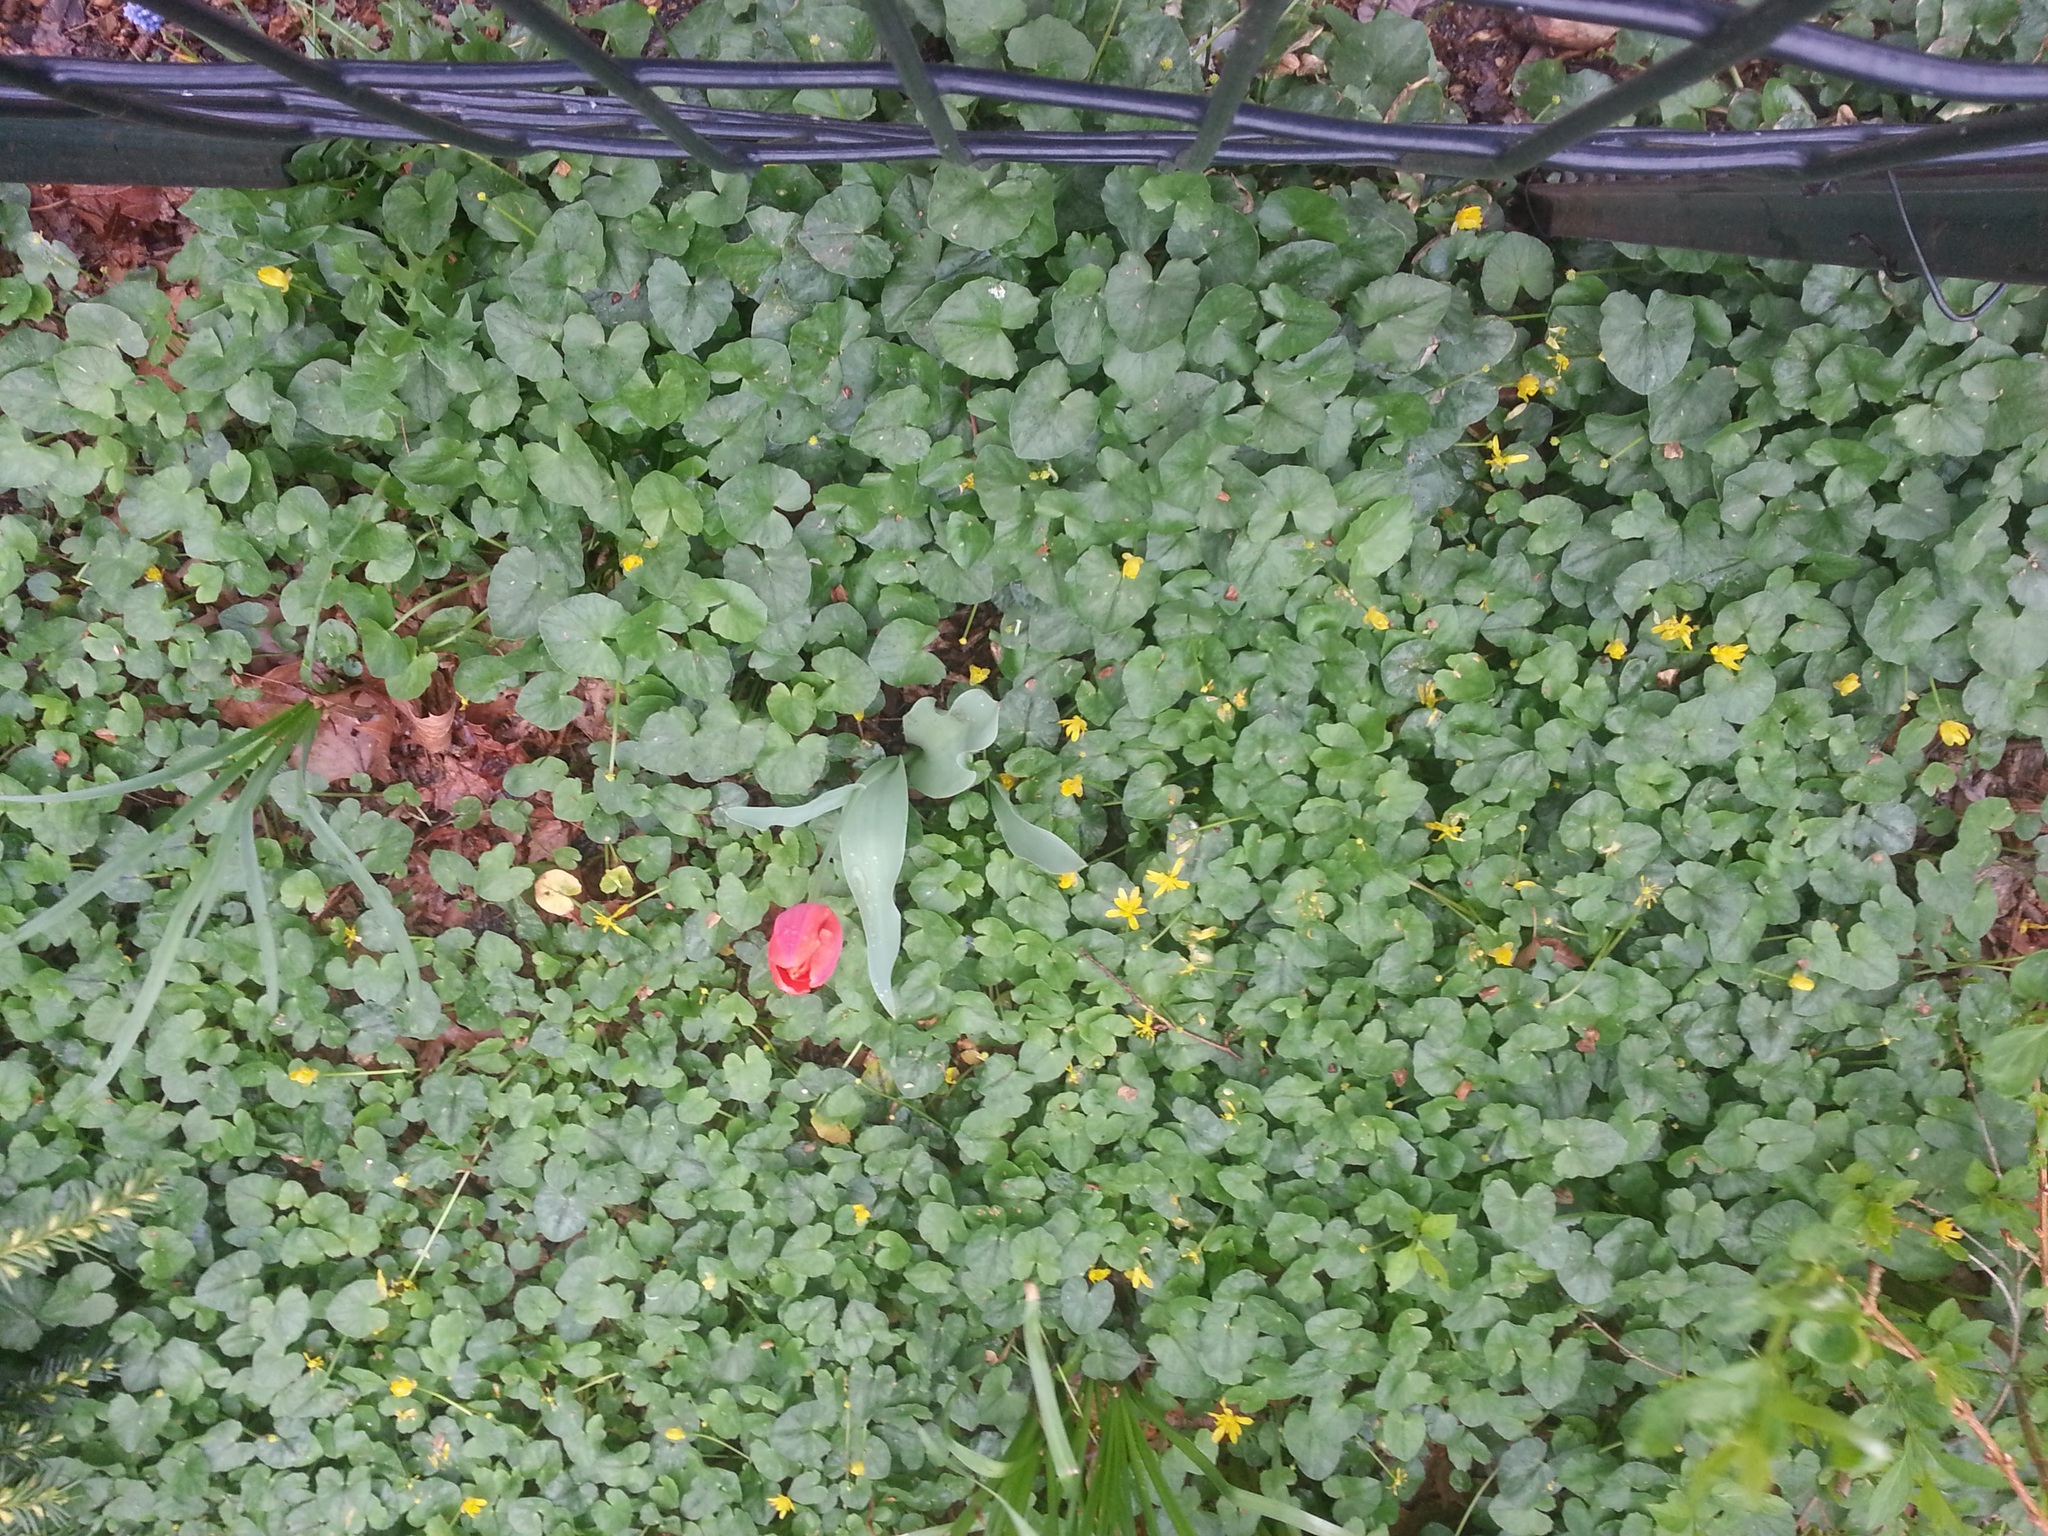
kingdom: Plantae
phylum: Tracheophyta
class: Magnoliopsida
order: Ranunculales
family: Ranunculaceae
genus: Ficaria
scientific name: Ficaria verna
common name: Lesser celandine
